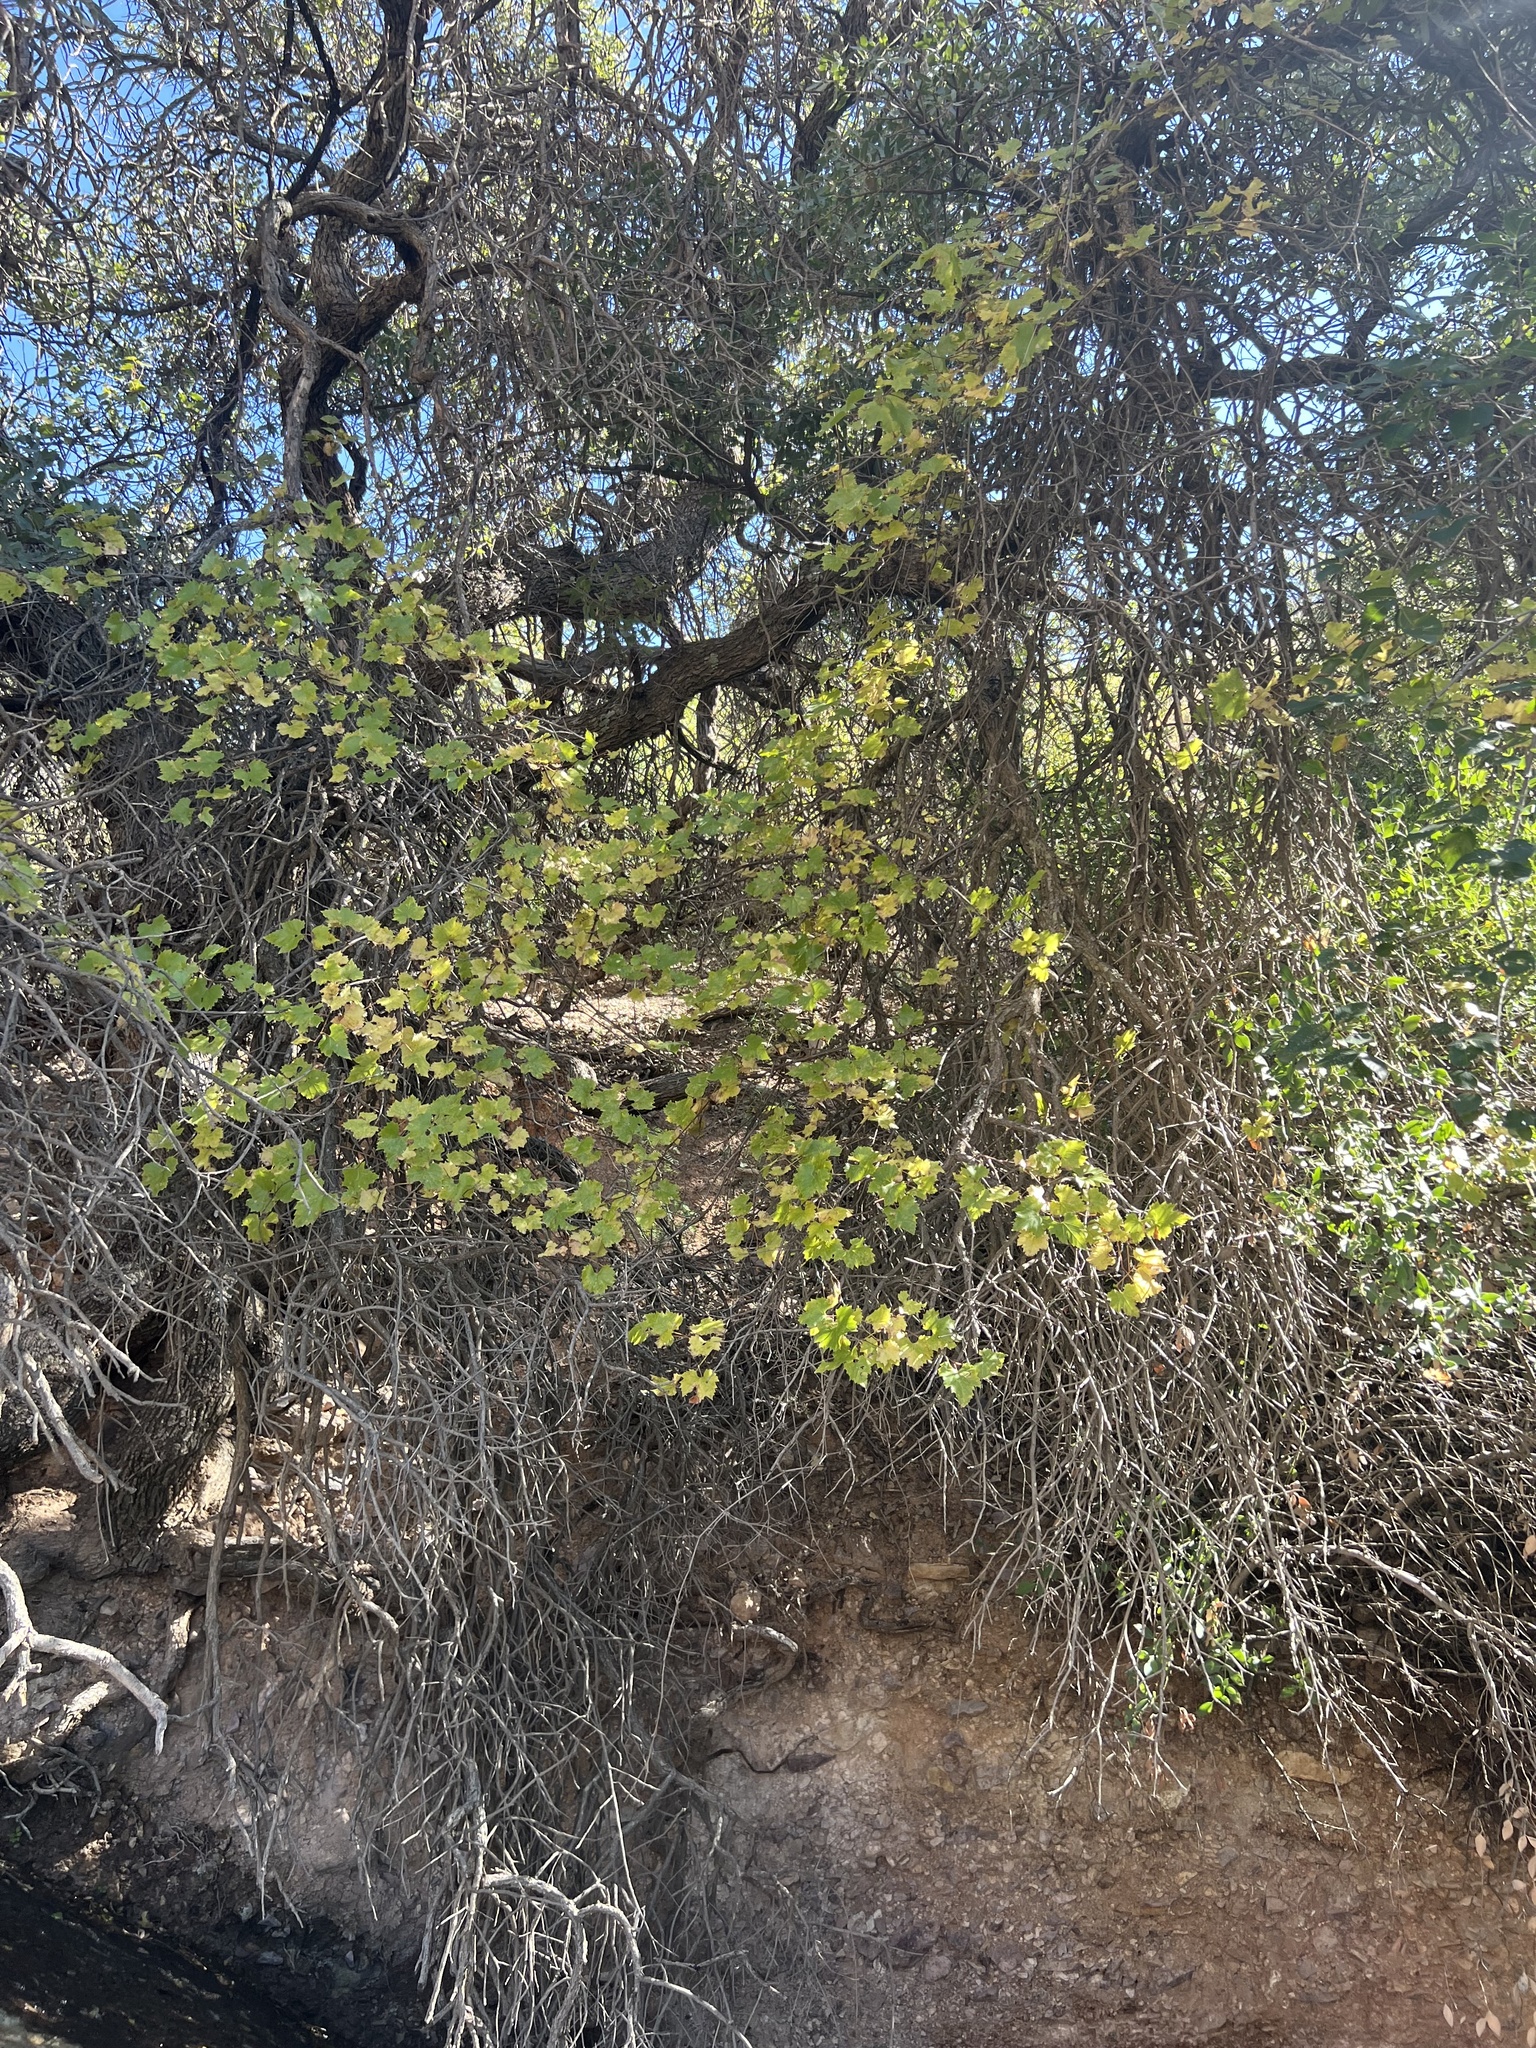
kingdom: Plantae
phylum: Tracheophyta
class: Magnoliopsida
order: Vitales
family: Vitaceae
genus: Vitis
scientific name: Vitis arizonica
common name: Canyon grape
